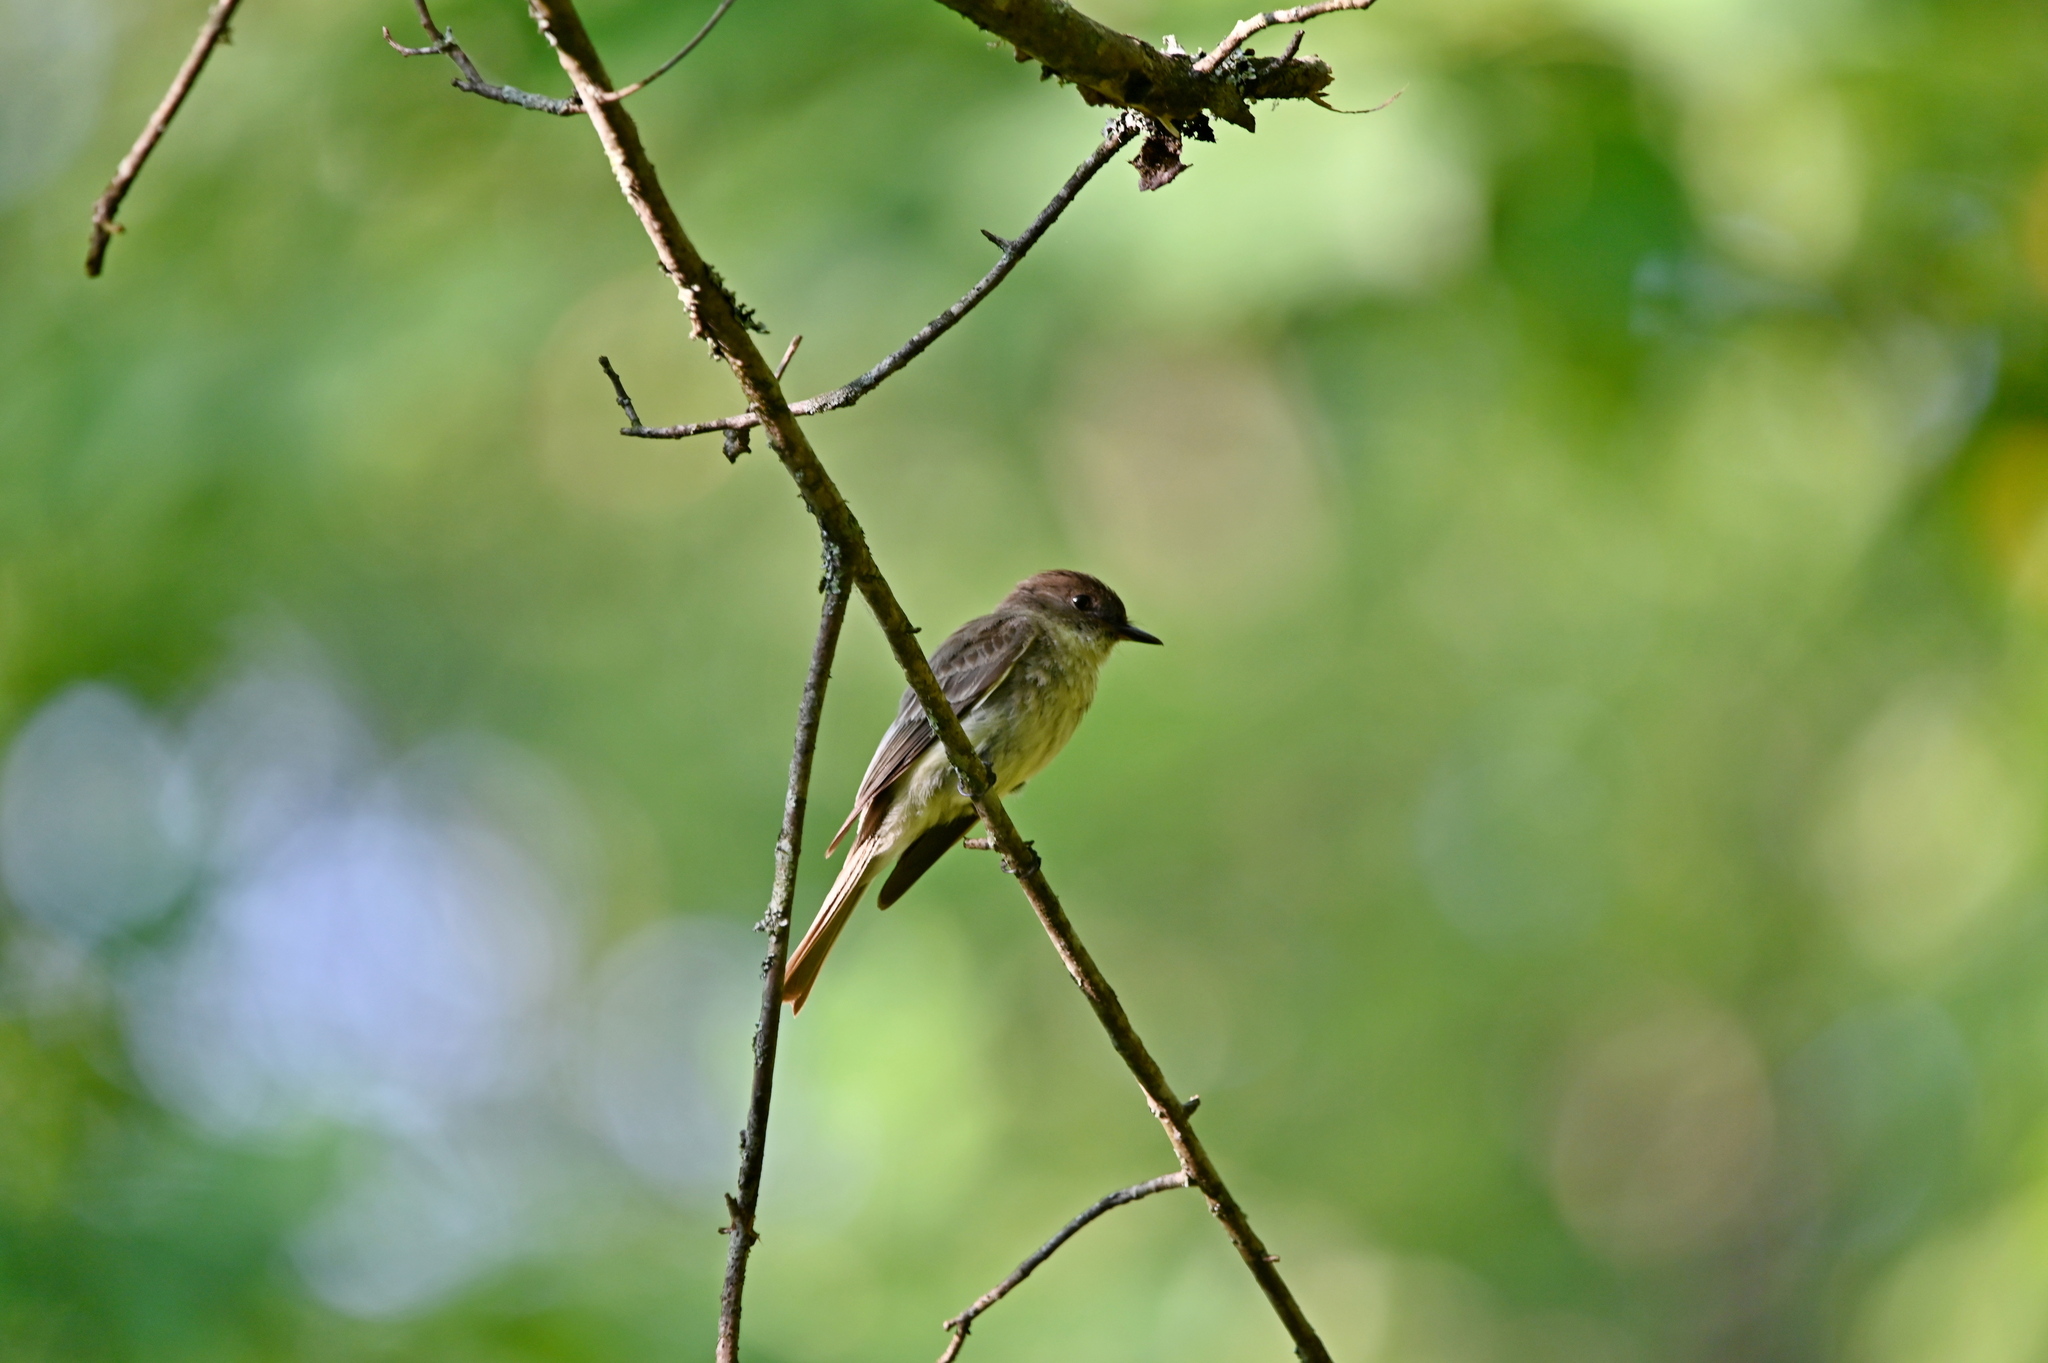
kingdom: Animalia
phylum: Chordata
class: Aves
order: Passeriformes
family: Tyrannidae
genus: Sayornis
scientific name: Sayornis phoebe
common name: Eastern phoebe
